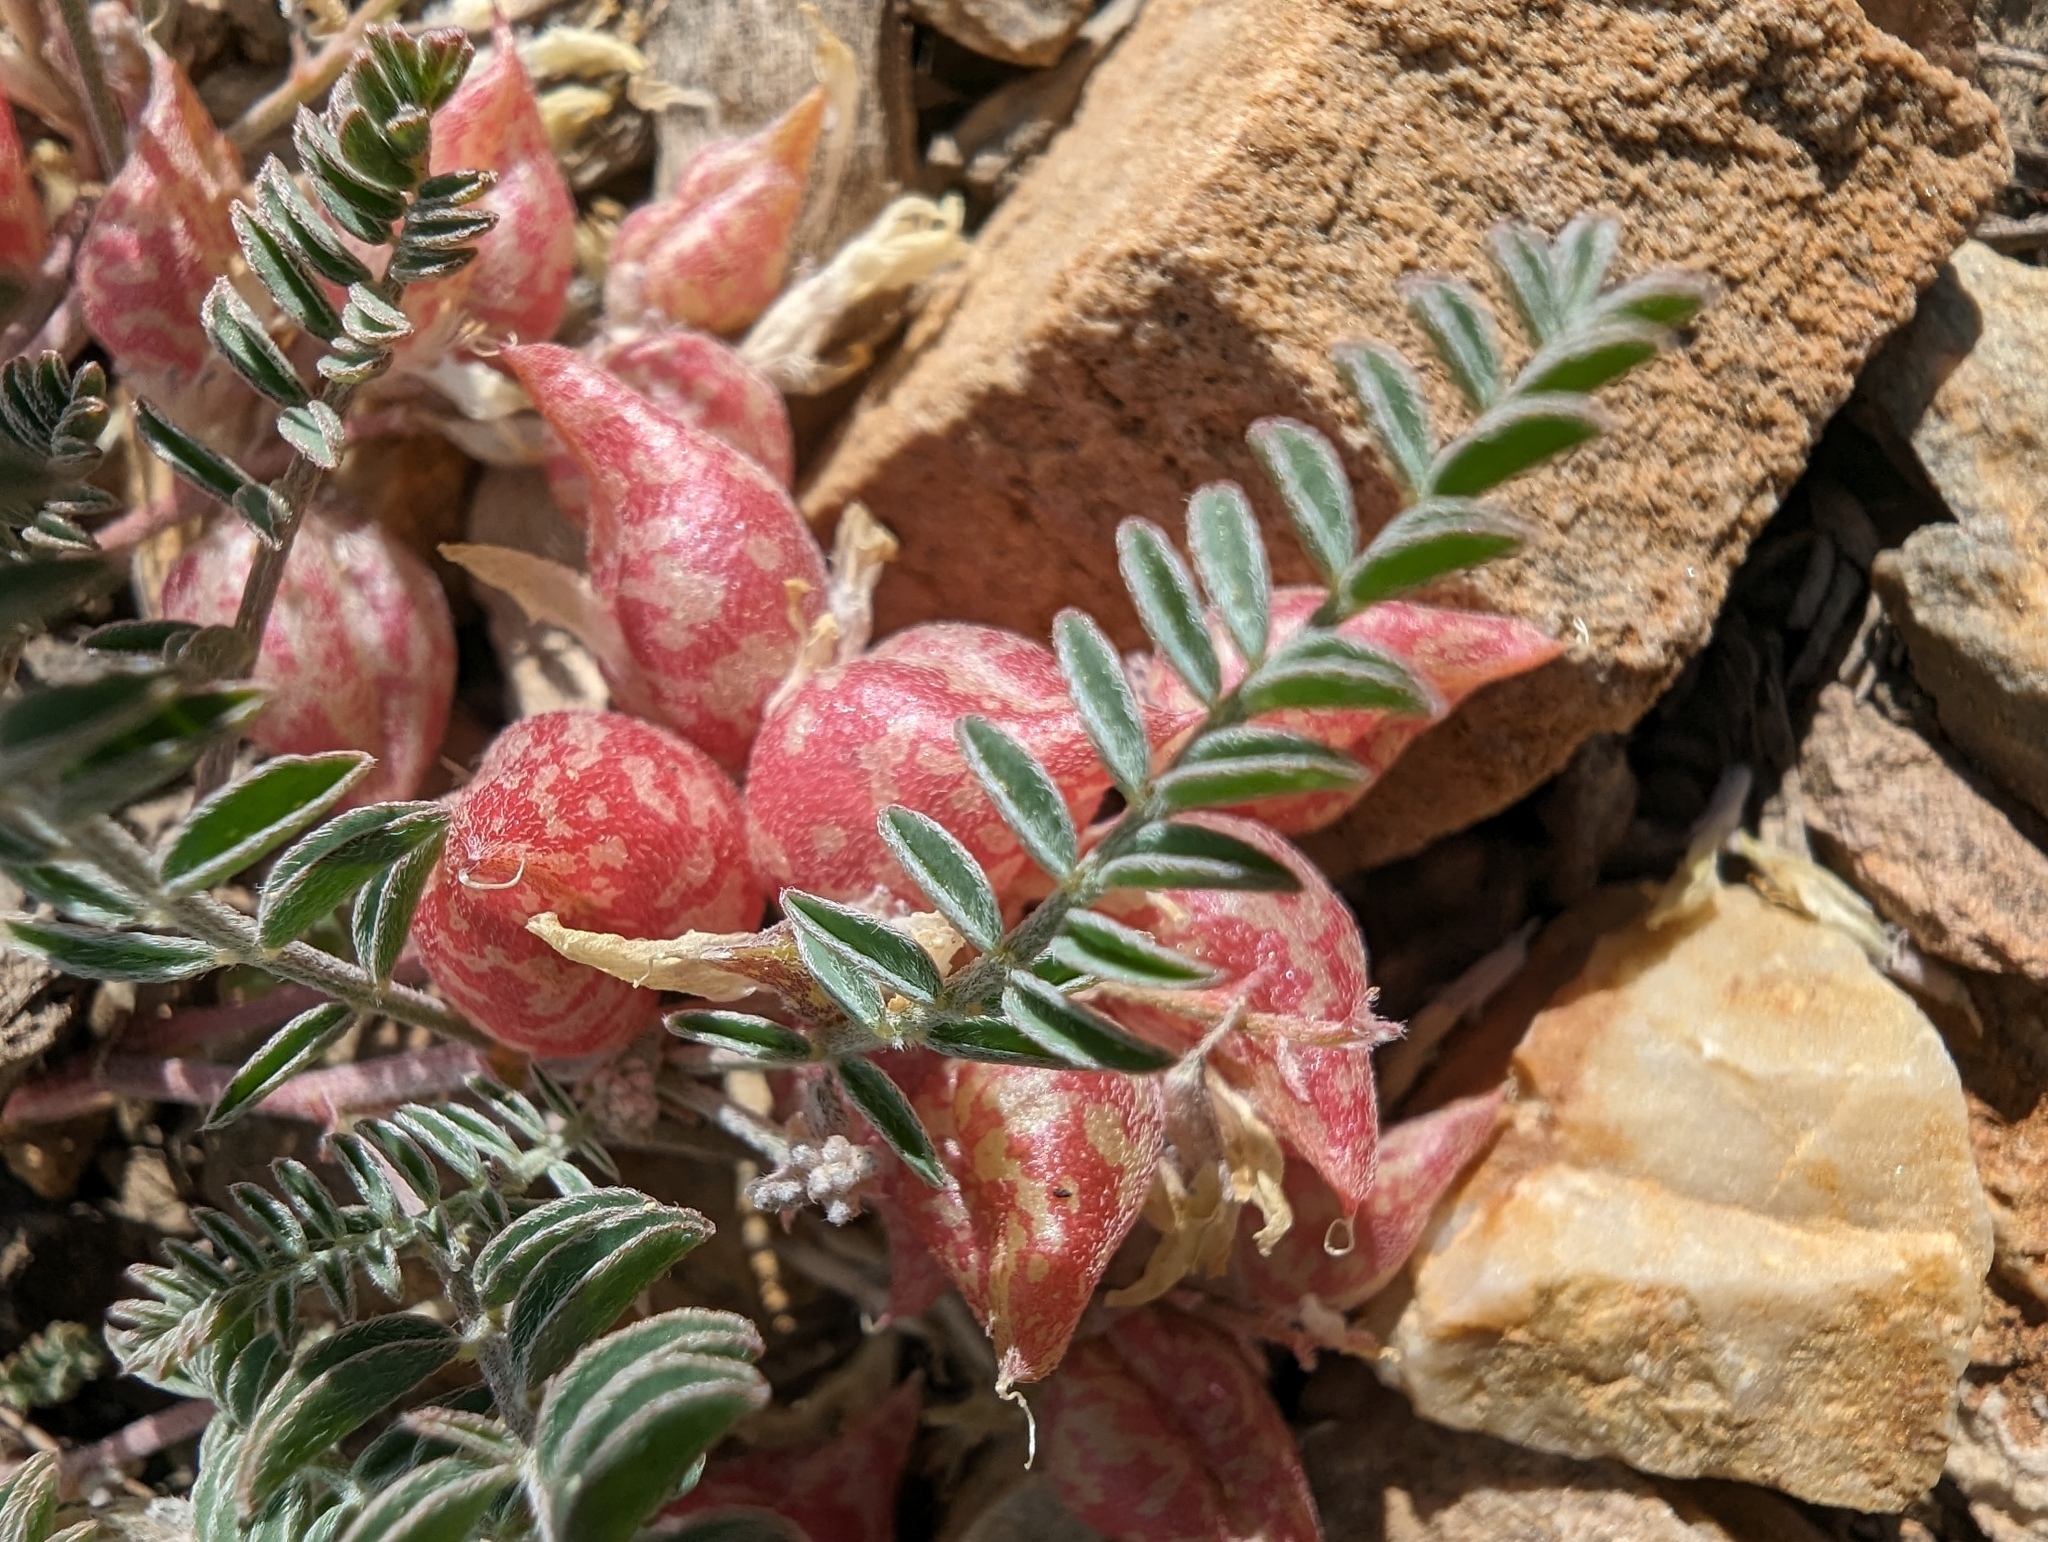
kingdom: Plantae
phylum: Tracheophyta
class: Magnoliopsida
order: Fabales
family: Fabaceae
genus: Astragalus
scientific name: Astragalus lentiginosus
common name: Freckled milkvetch
